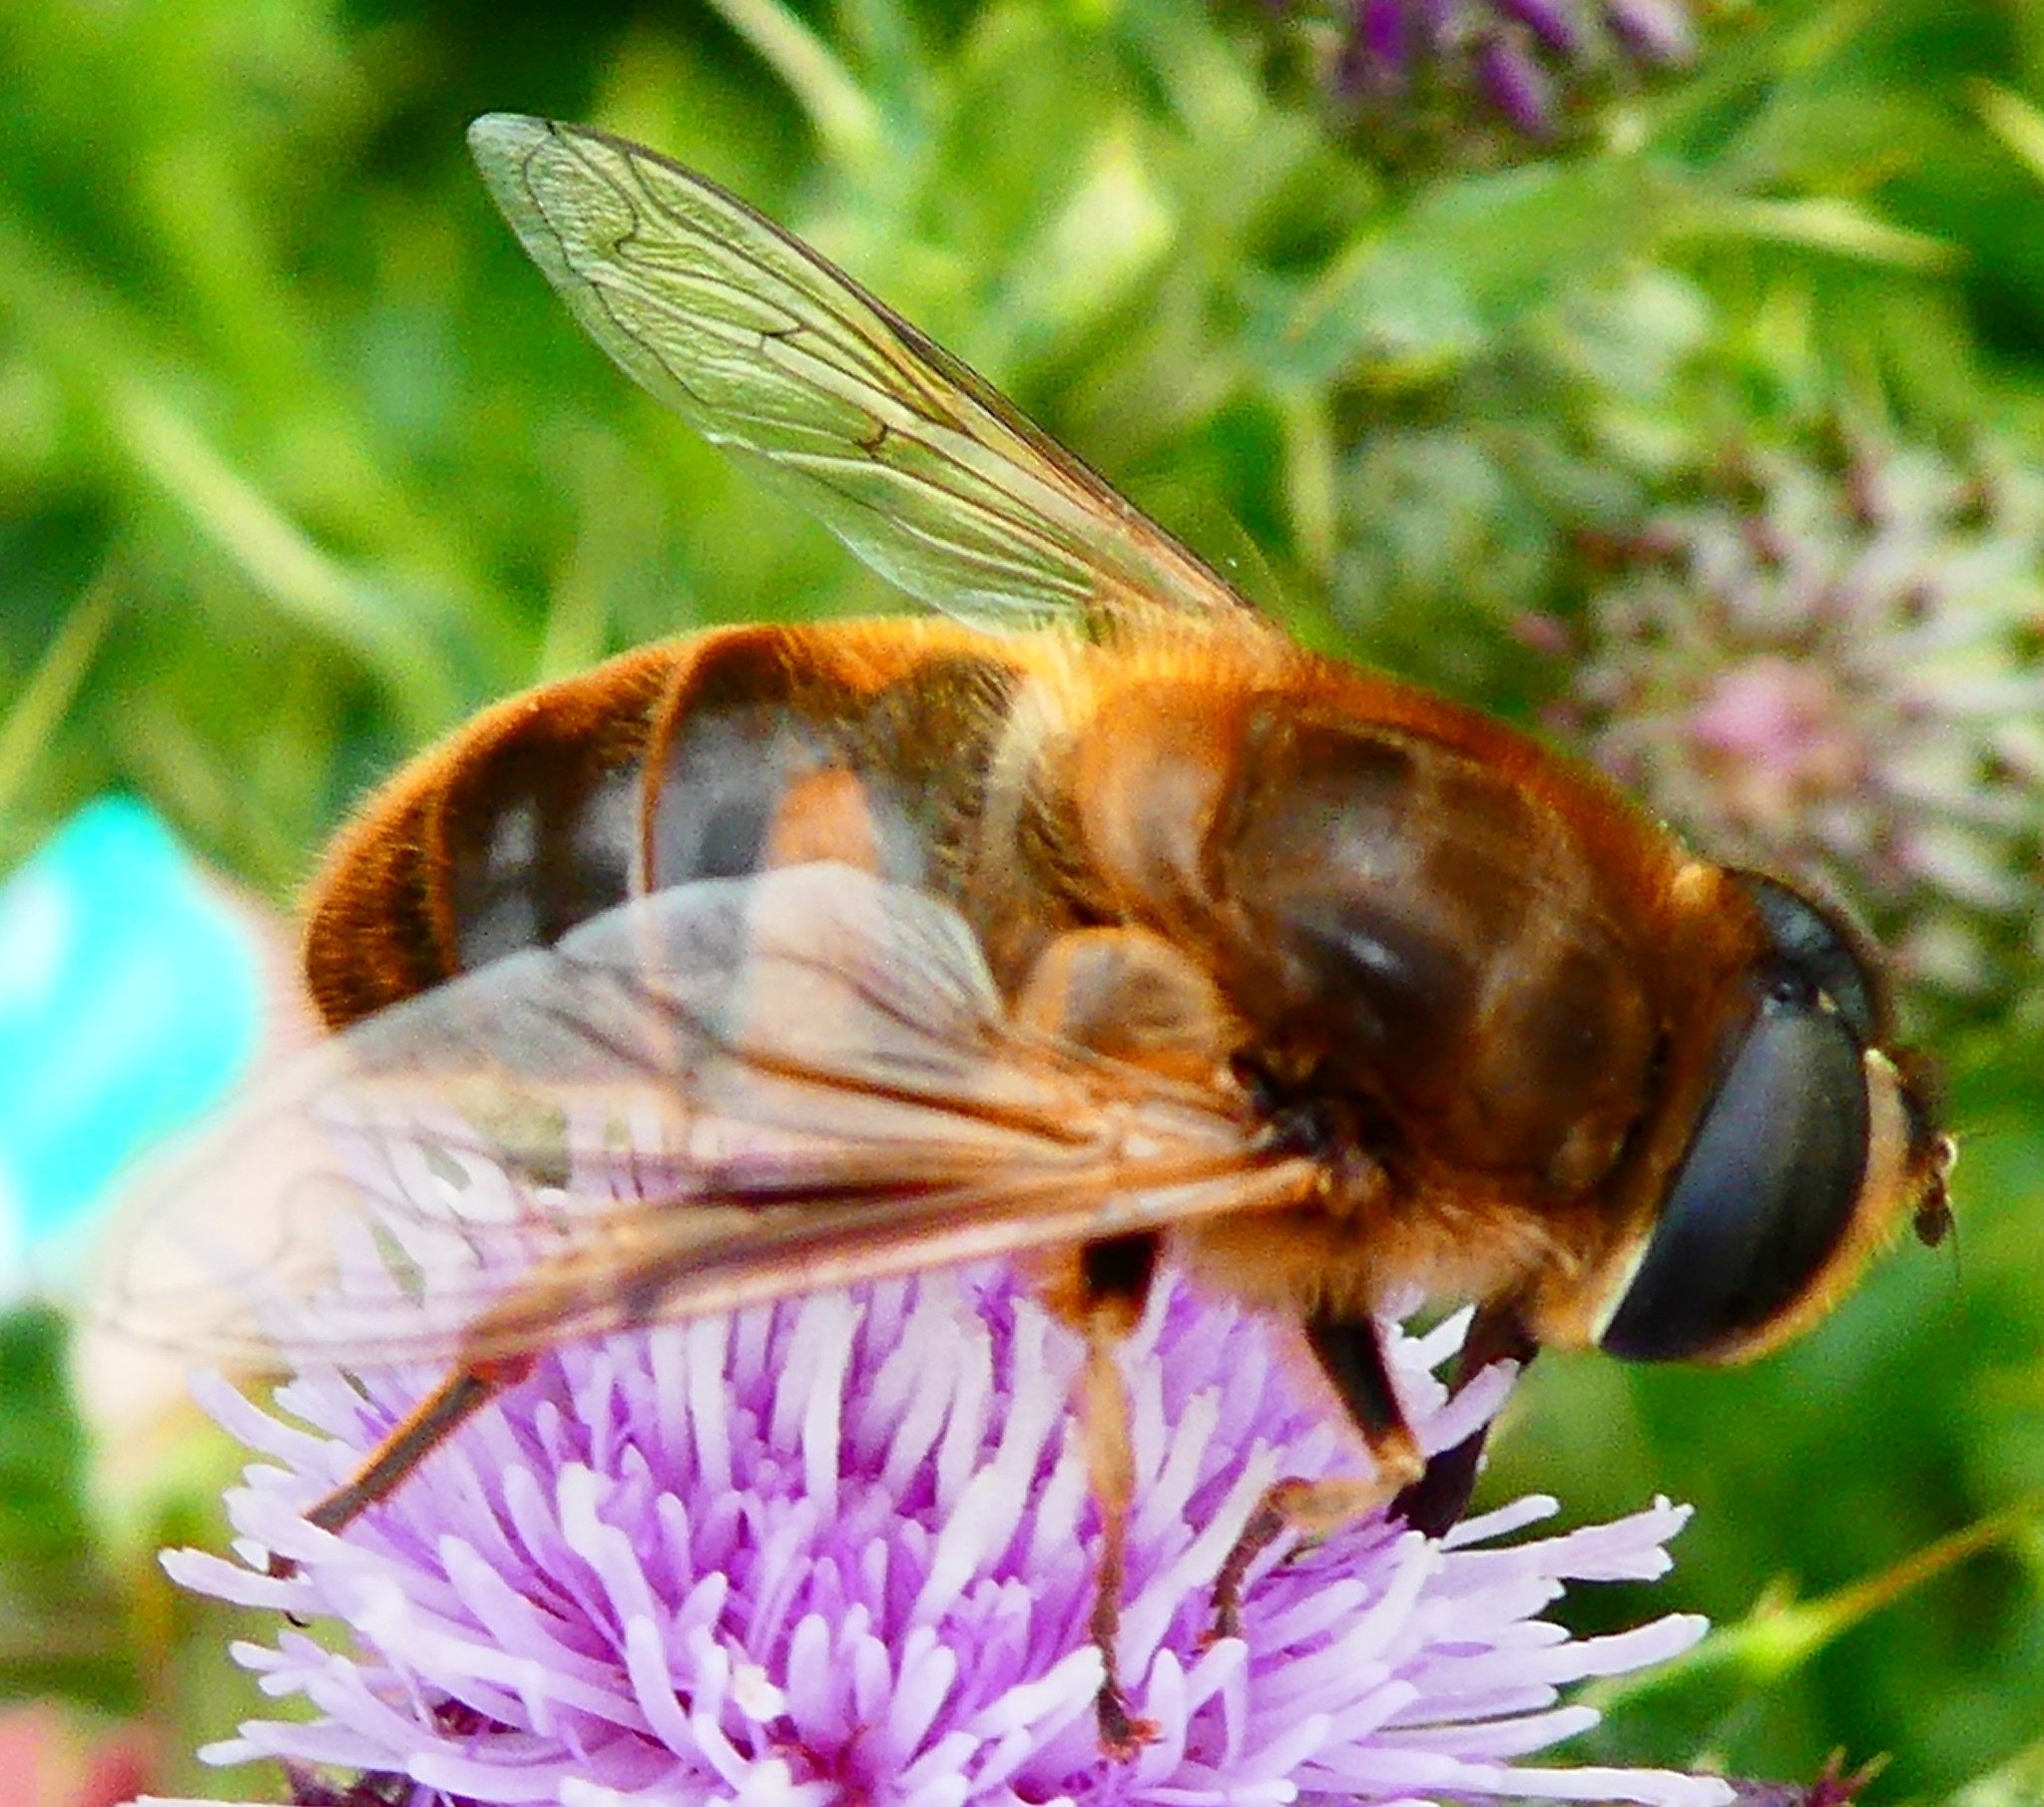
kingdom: Animalia
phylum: Arthropoda
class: Insecta
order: Diptera
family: Syrphidae
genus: Eristalis
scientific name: Eristalis tenax
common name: Drone fly
